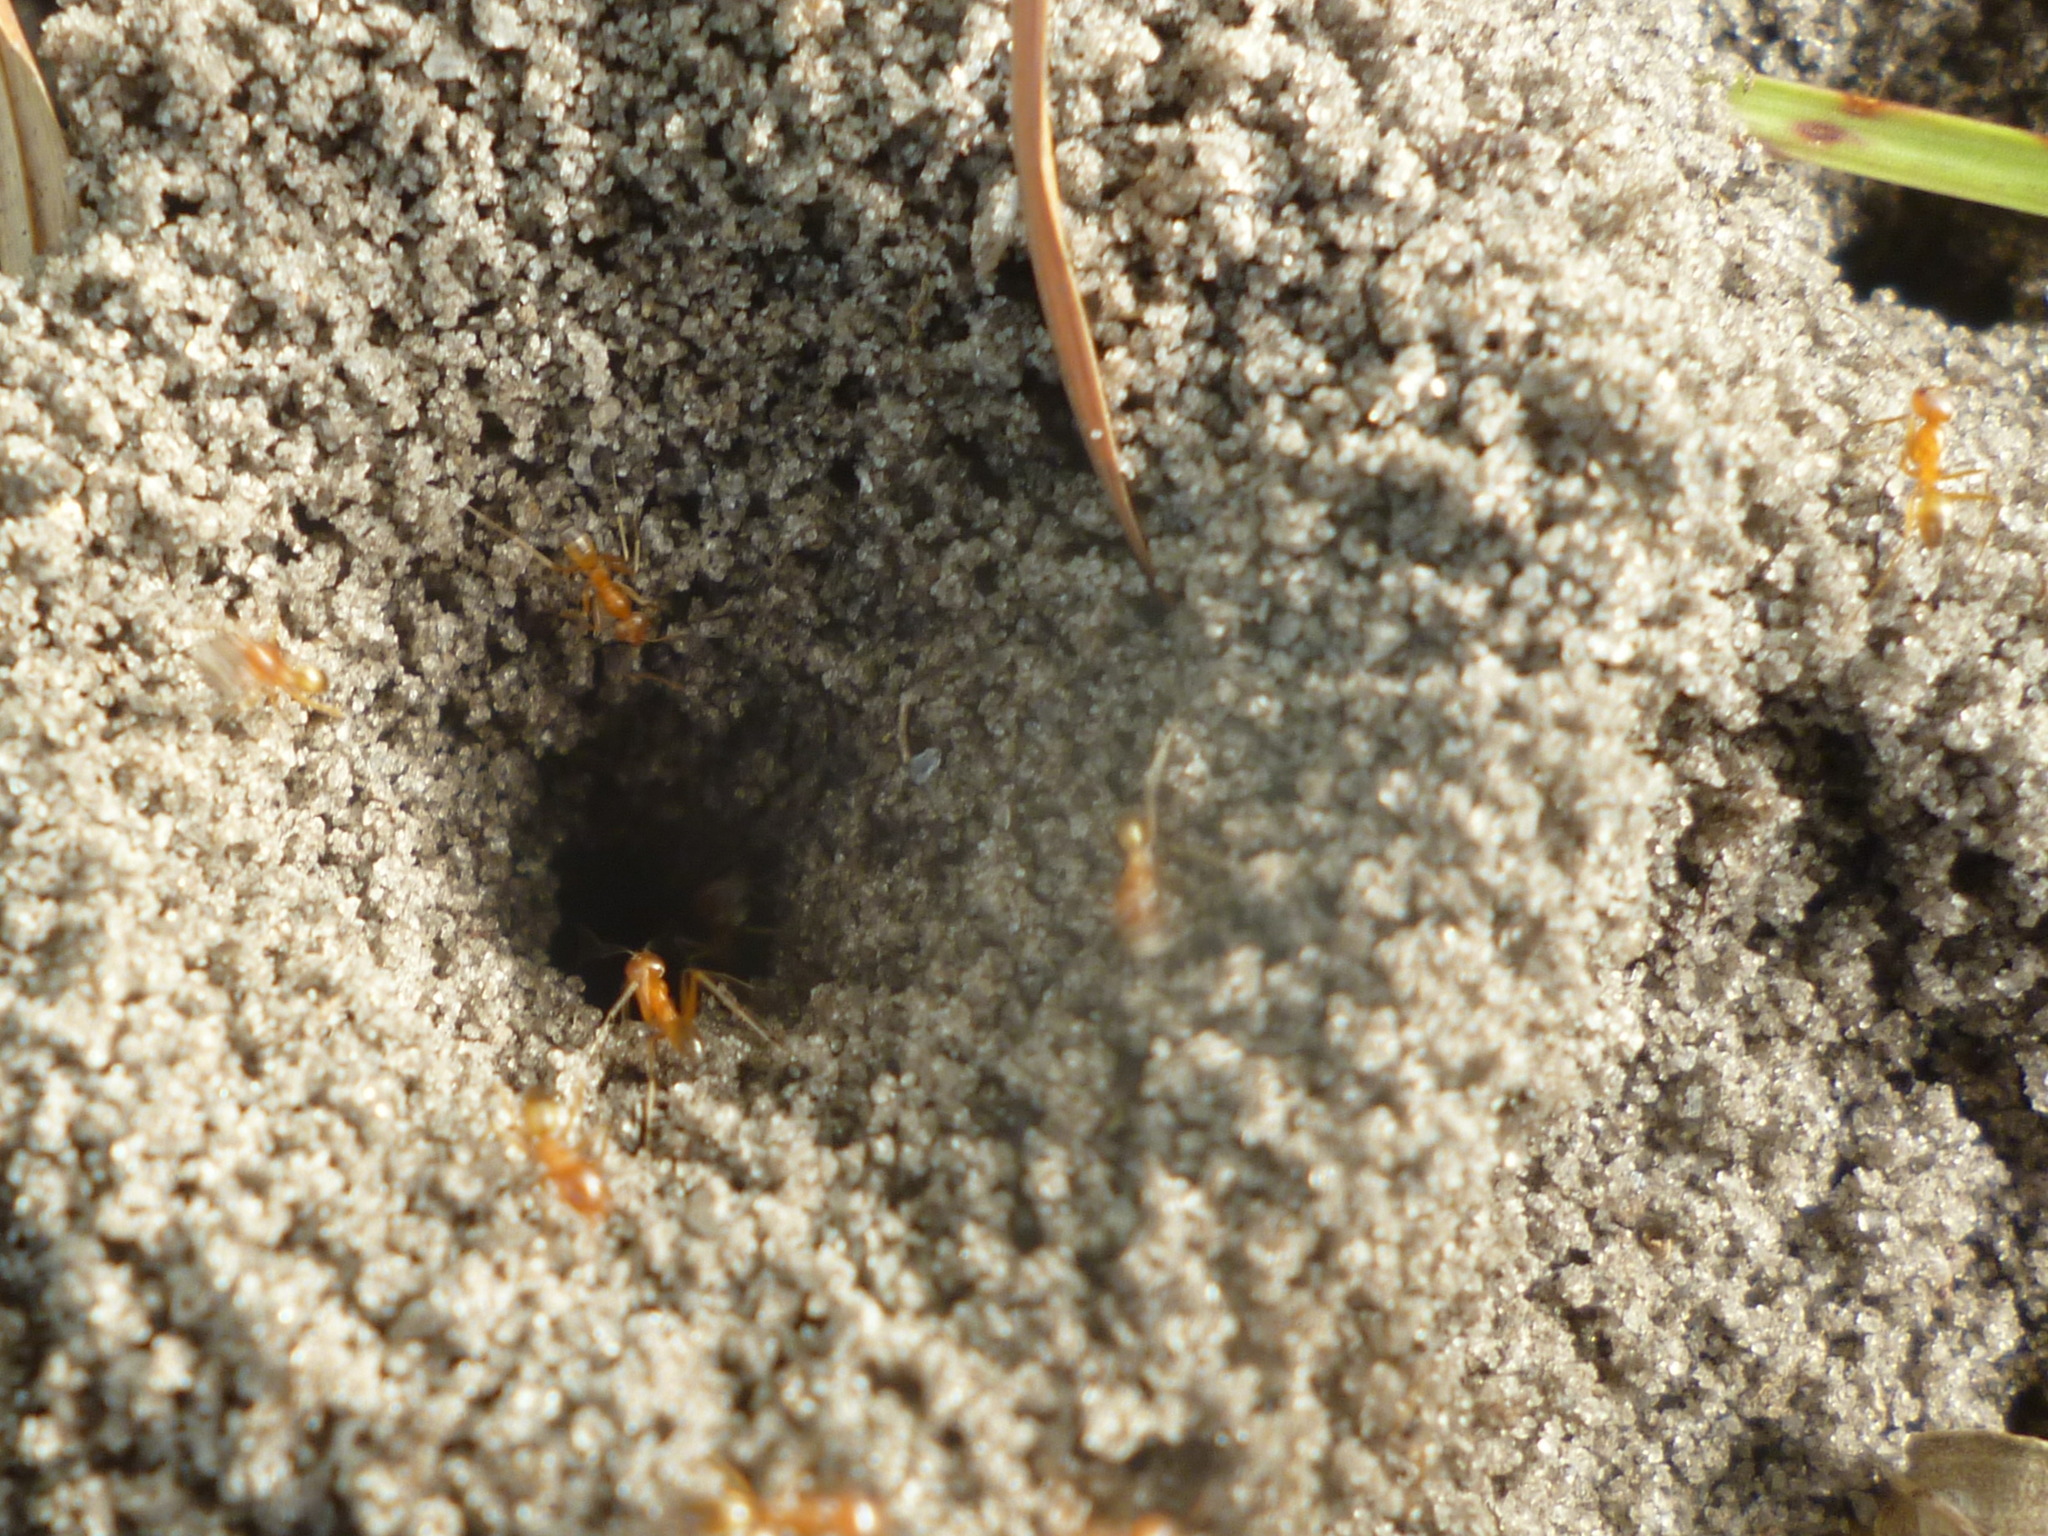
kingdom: Animalia
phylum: Arthropoda
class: Insecta
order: Hymenoptera
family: Formicidae
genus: Dorymyrmex
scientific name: Dorymyrmex bureni
